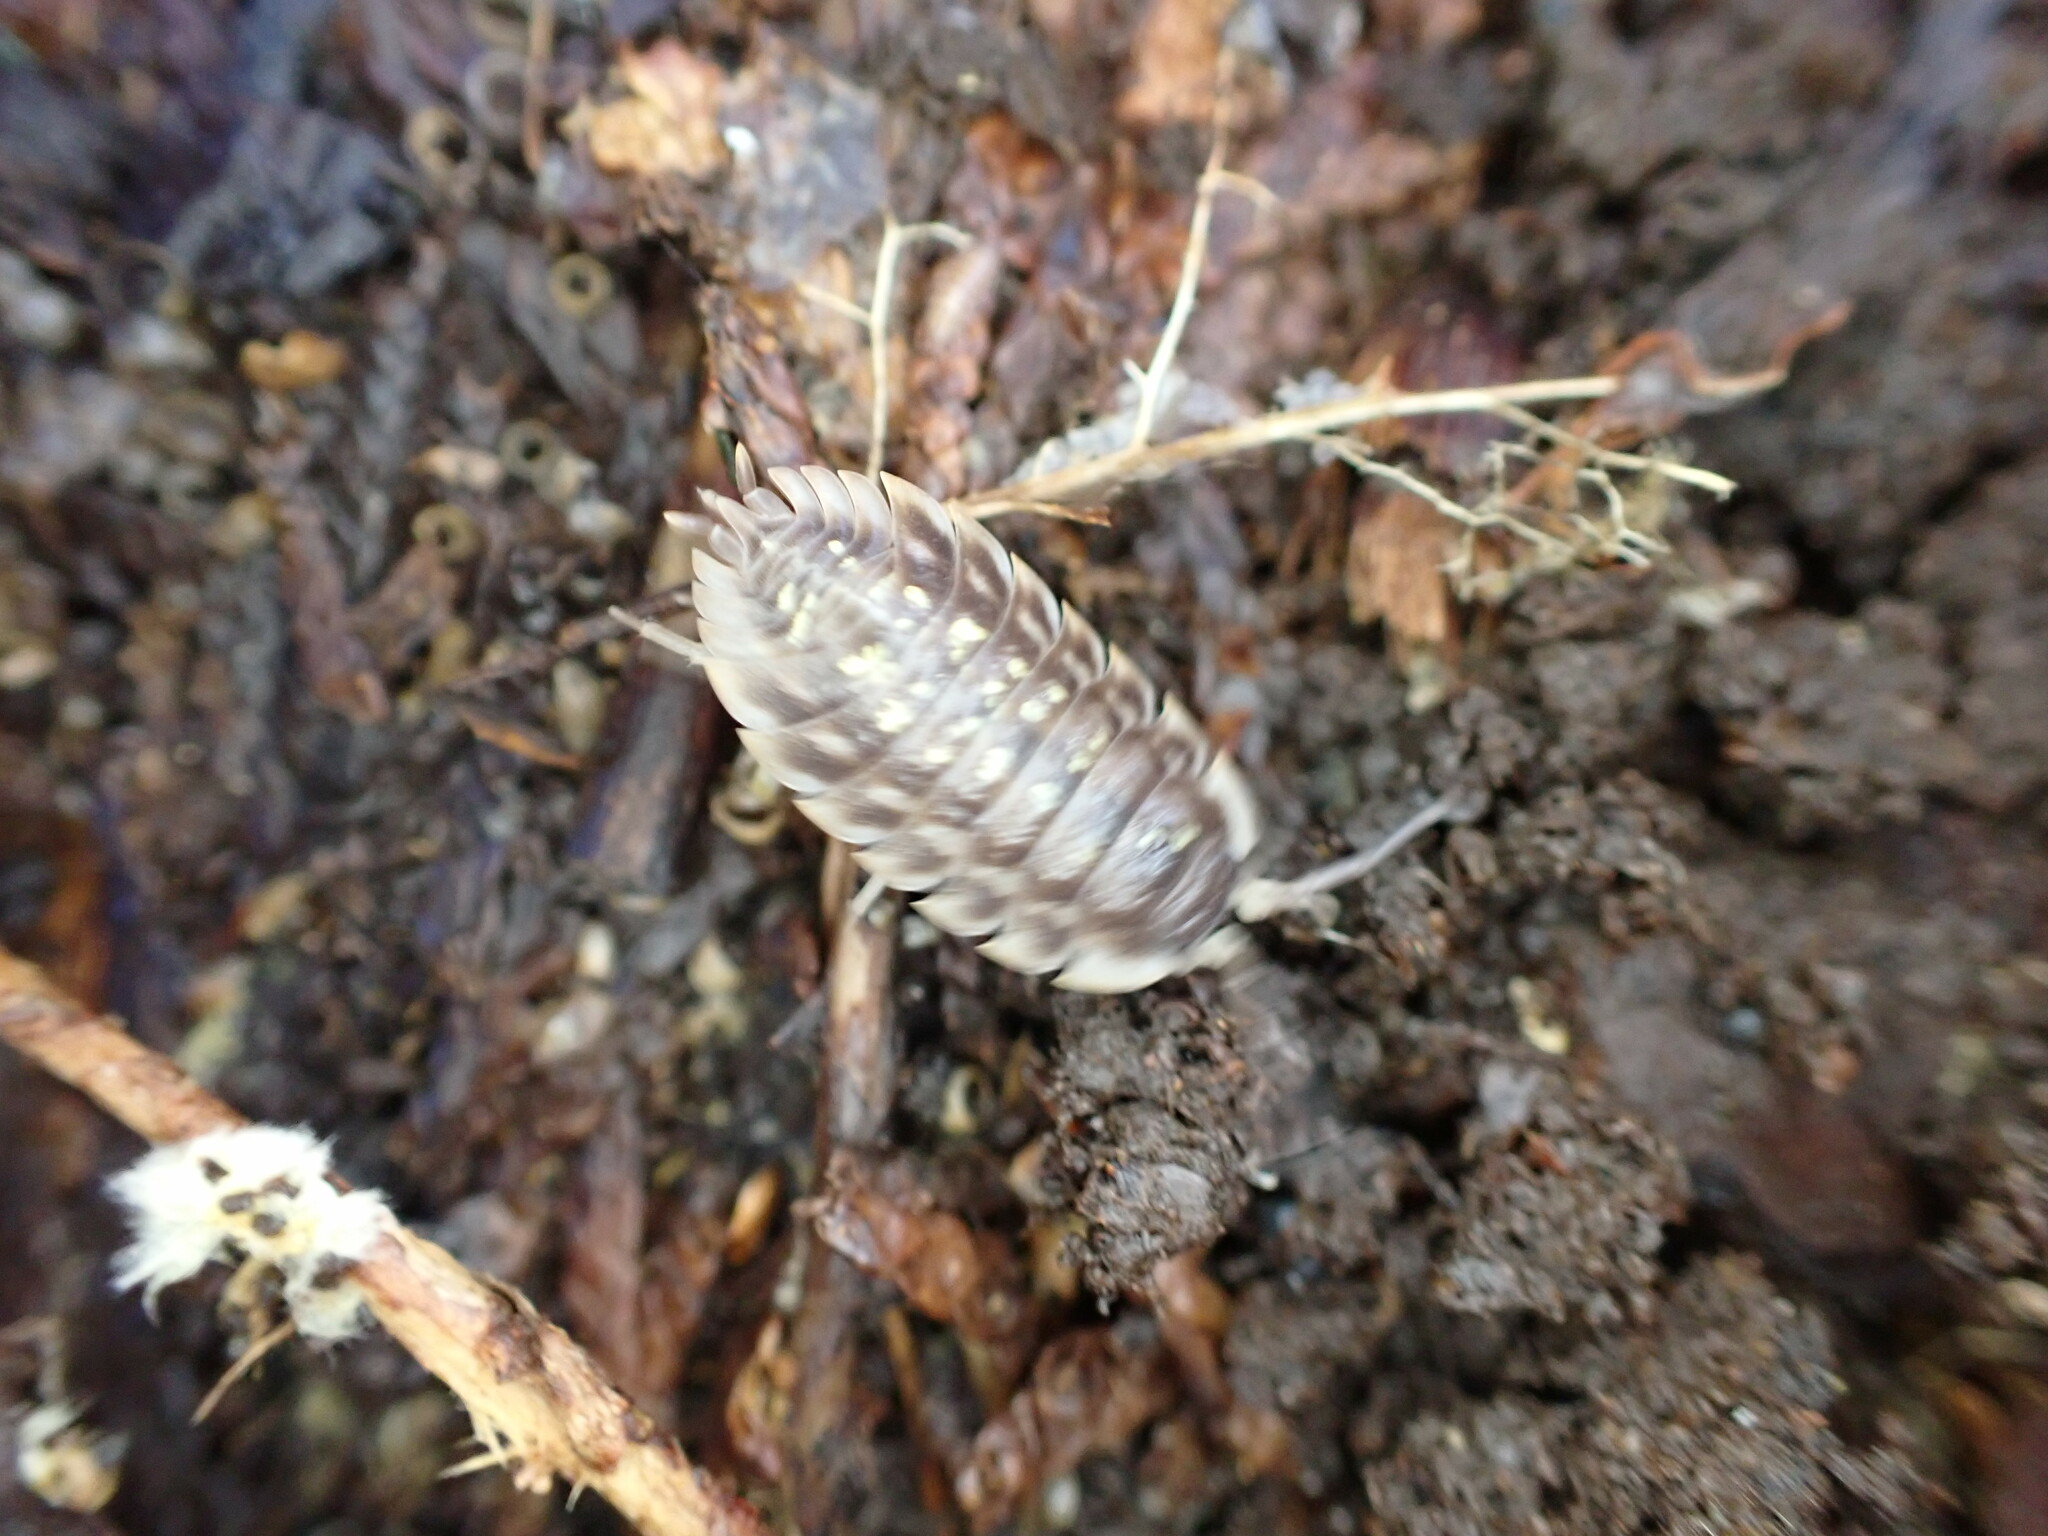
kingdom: Animalia
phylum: Arthropoda
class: Malacostraca
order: Isopoda
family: Oniscidae
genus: Oniscus
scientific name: Oniscus asellus
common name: Common shiny woodlouse
